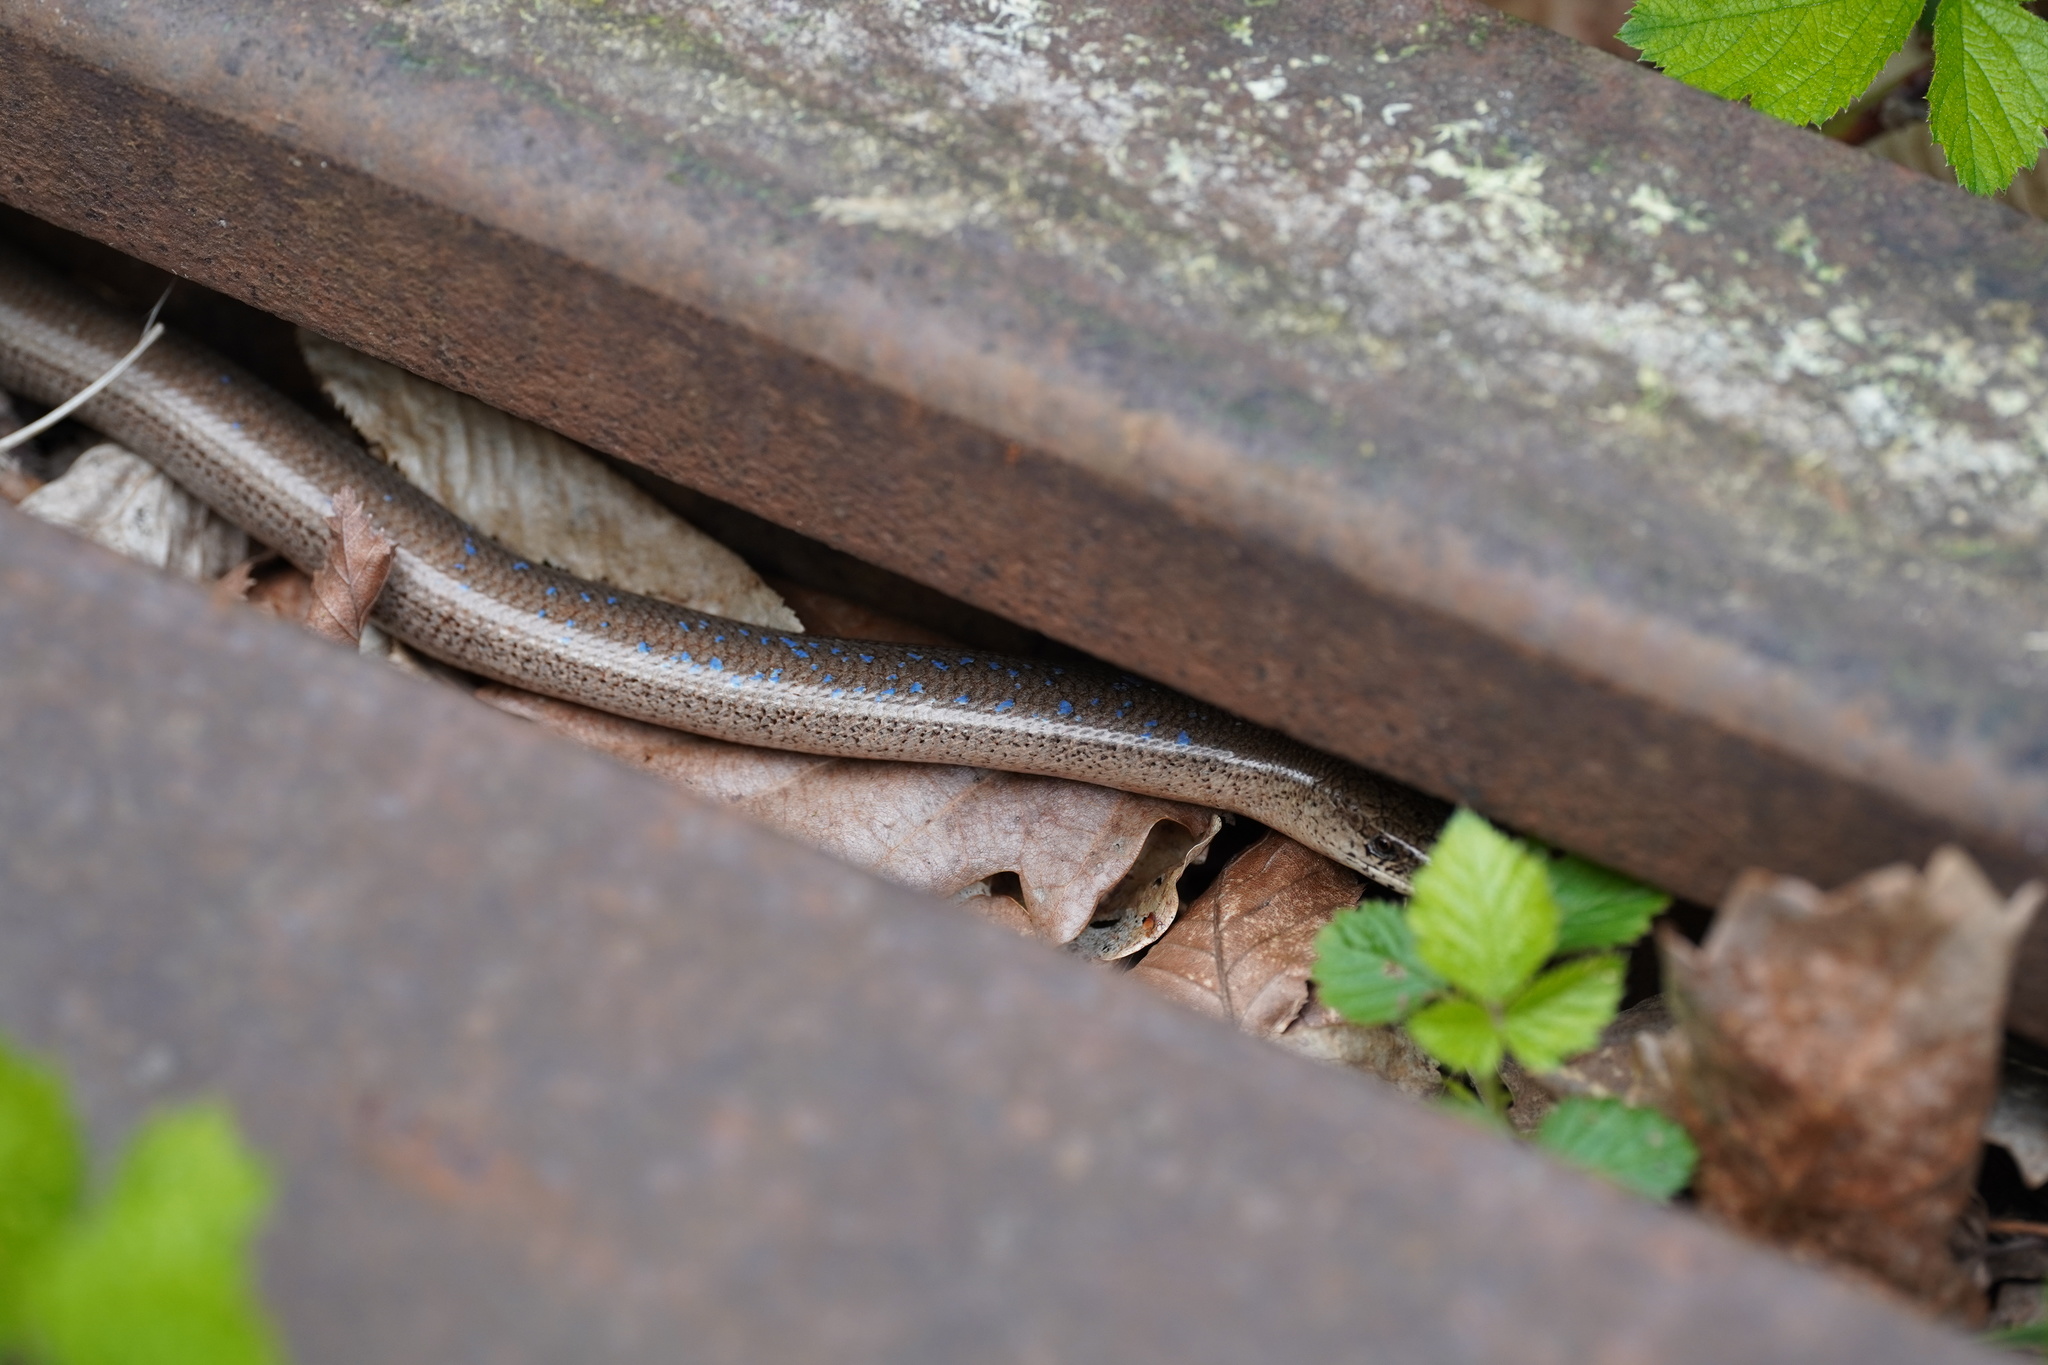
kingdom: Animalia
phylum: Chordata
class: Squamata
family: Anguidae
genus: Anguis
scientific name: Anguis fragilis
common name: Slow worm
